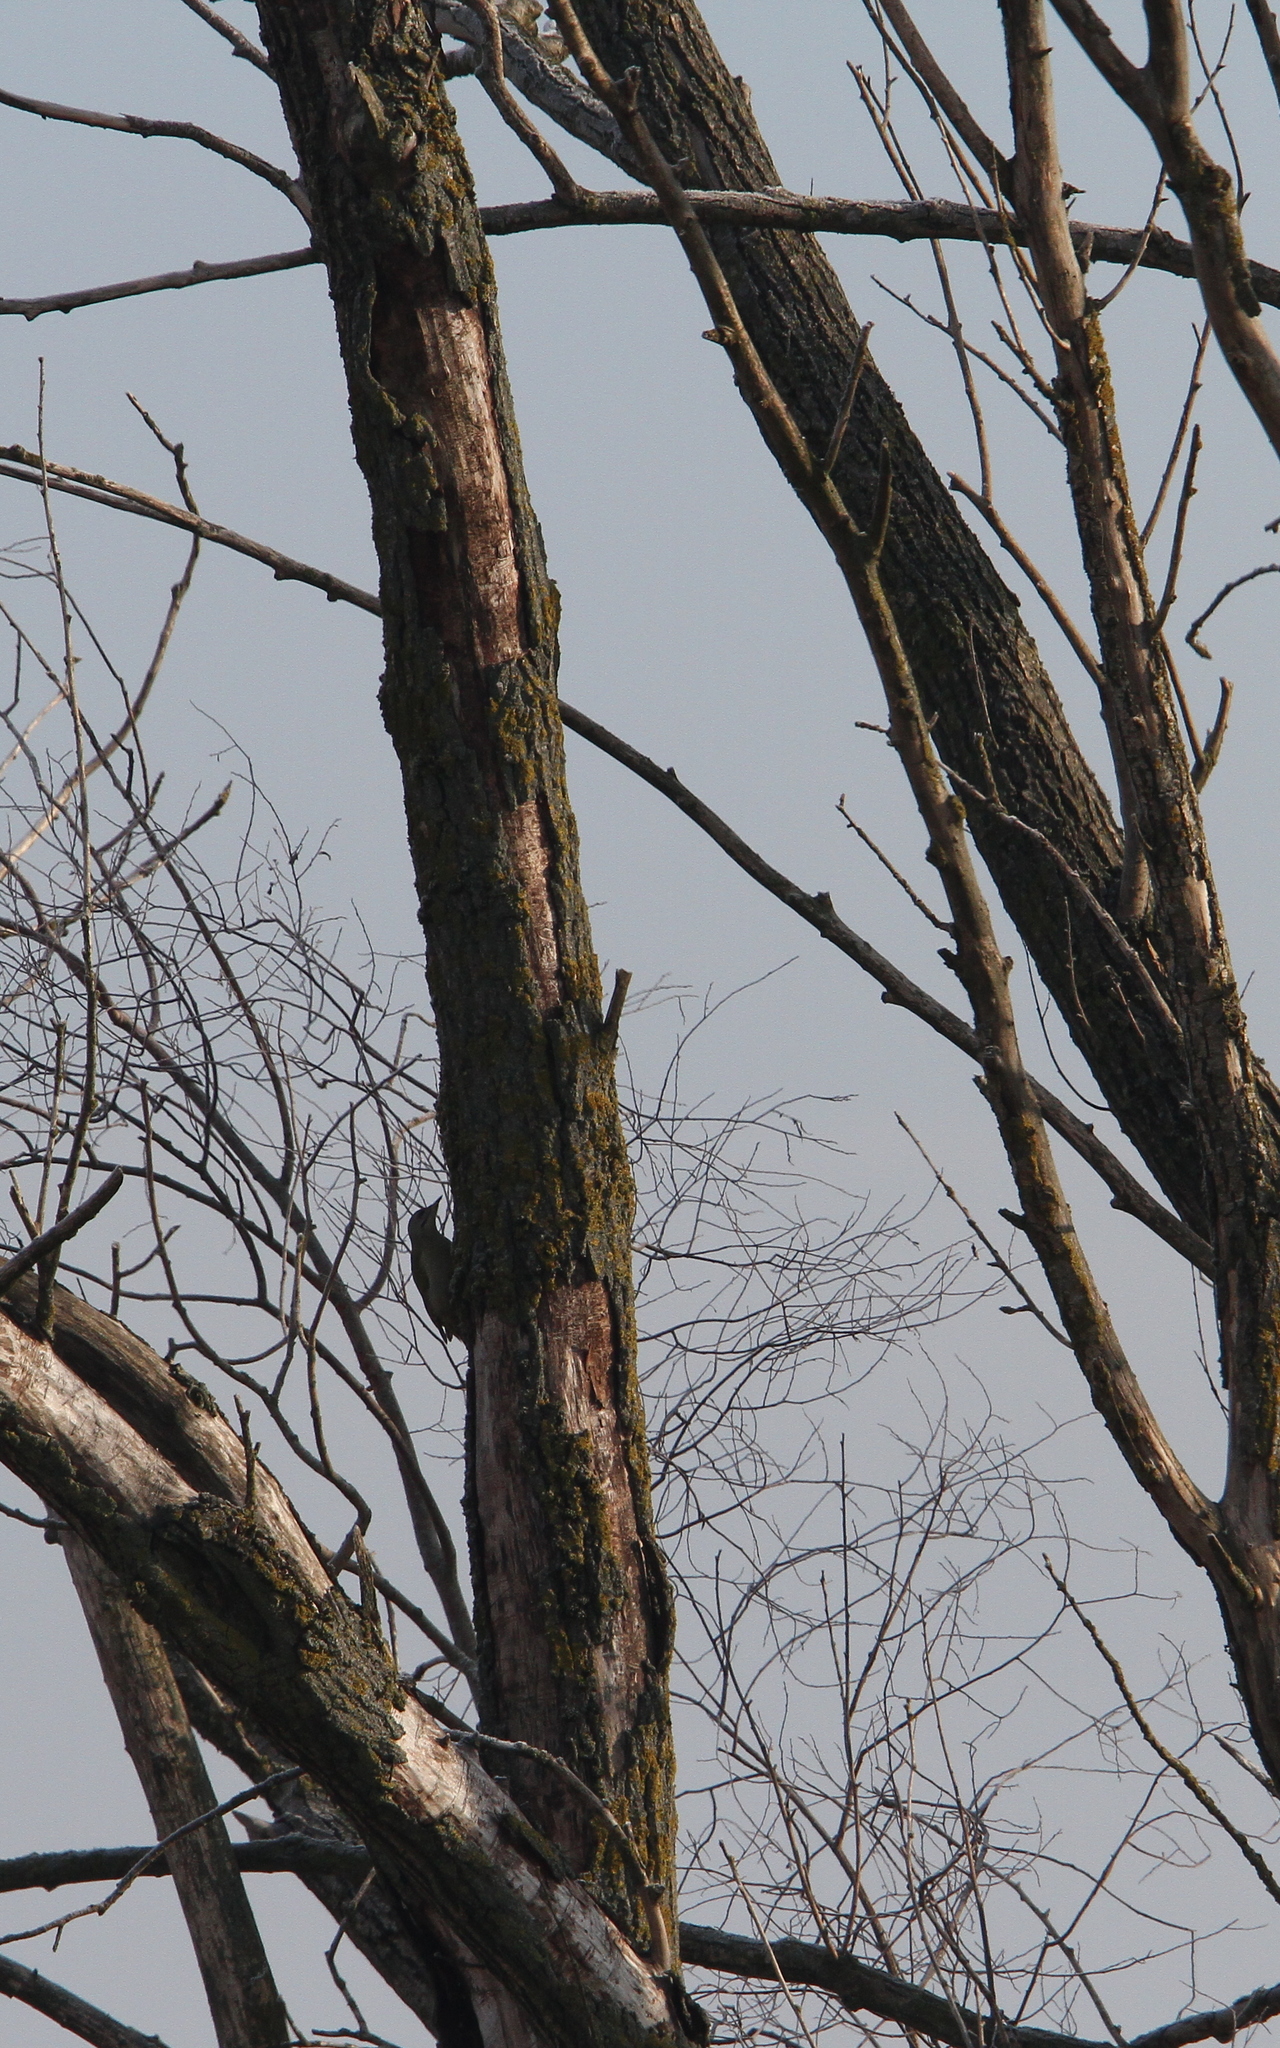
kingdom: Animalia
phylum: Chordata
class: Aves
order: Piciformes
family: Picidae
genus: Picus
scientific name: Picus canus
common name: Grey-headed woodpecker
